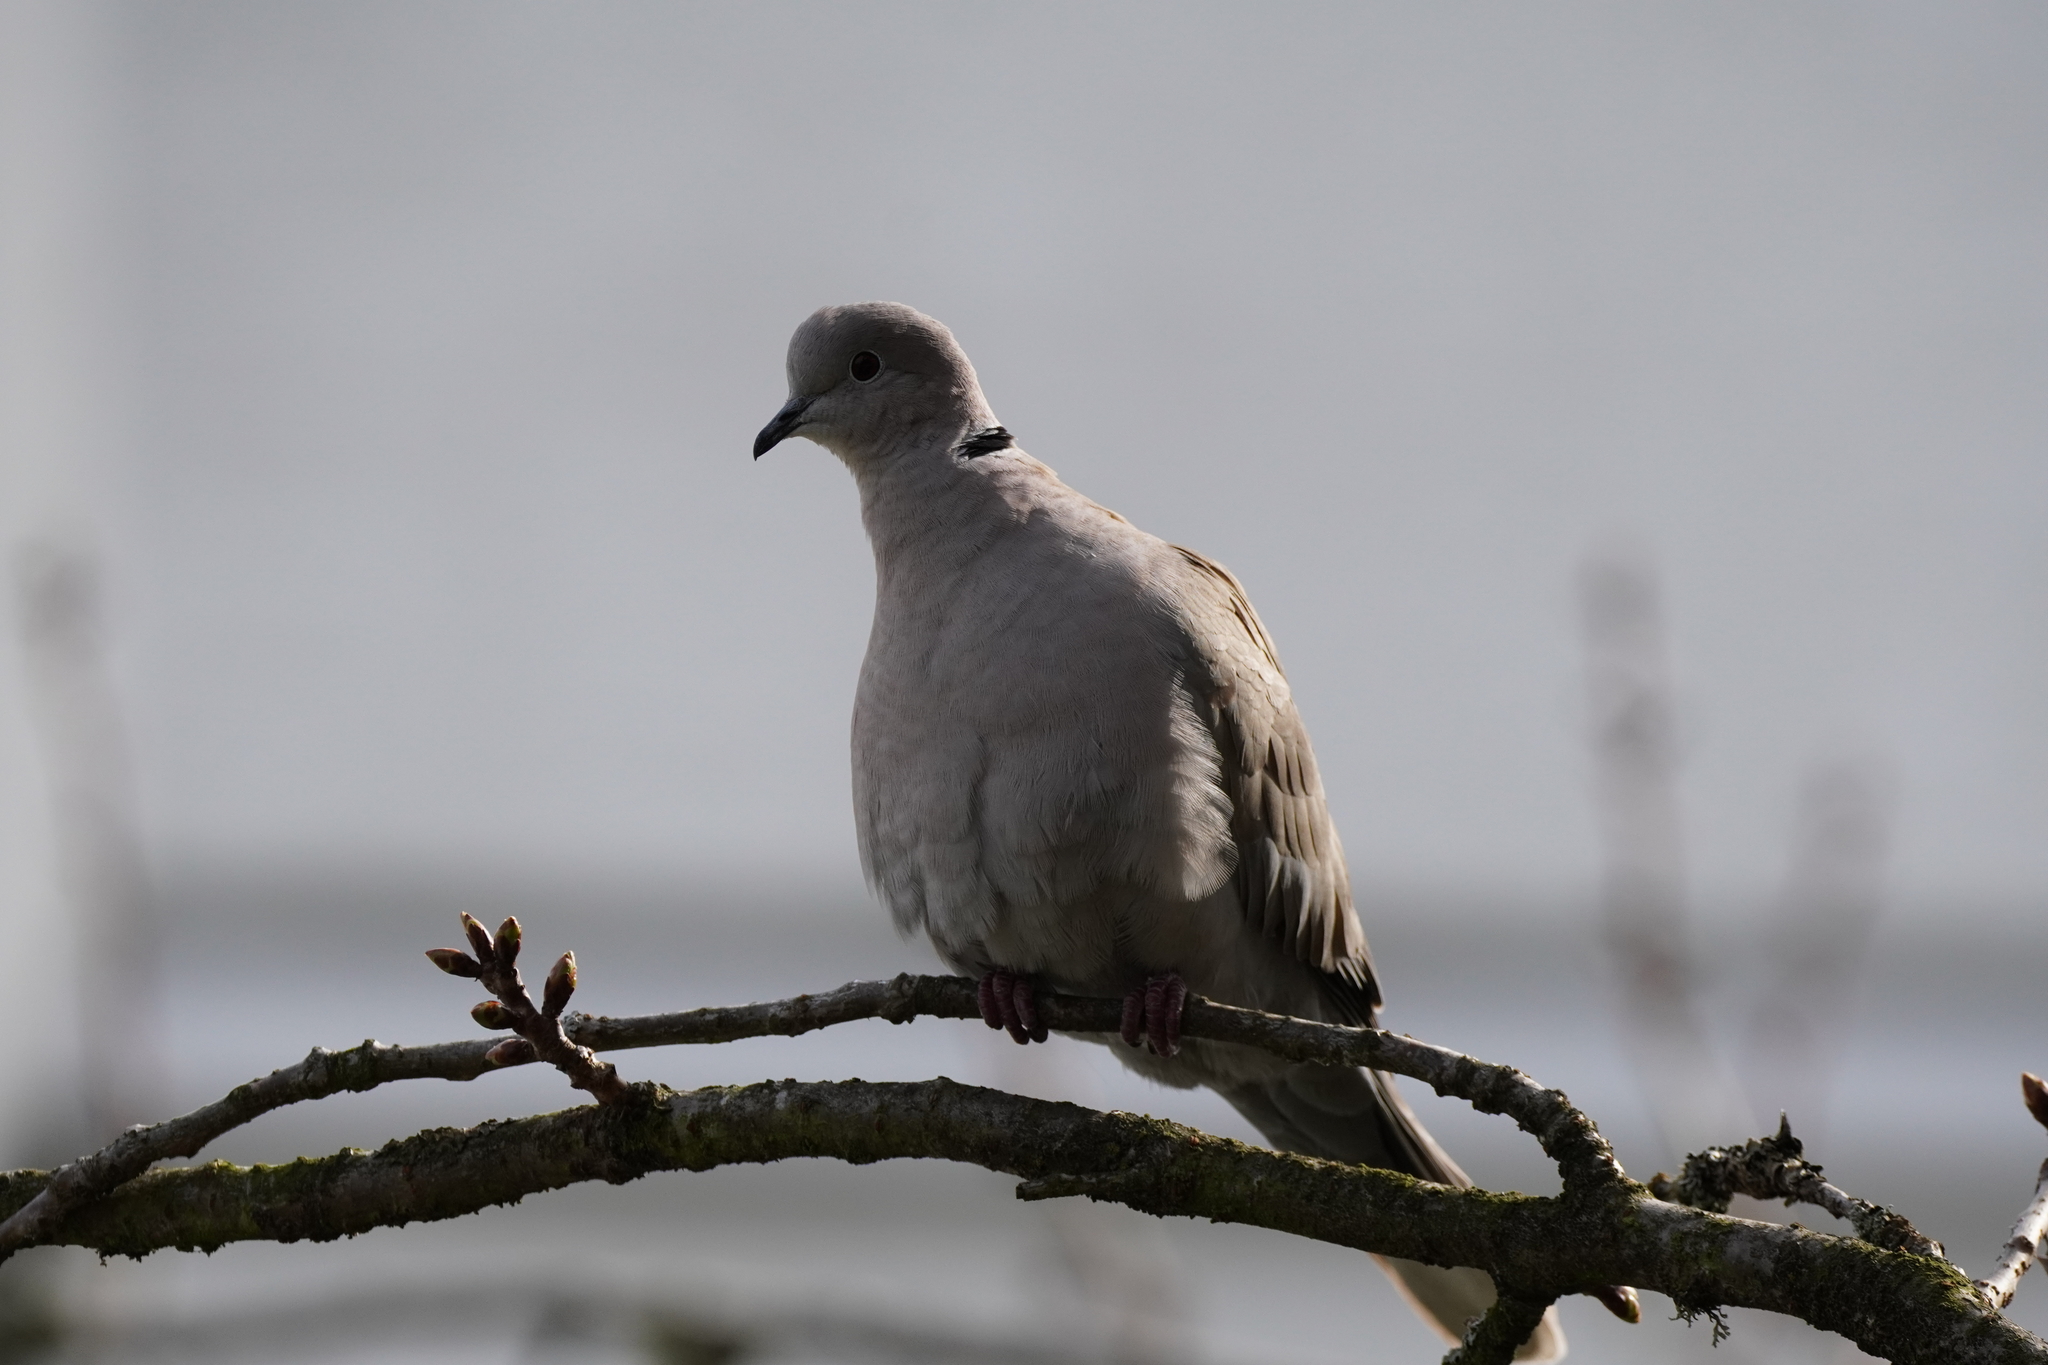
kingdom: Animalia
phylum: Chordata
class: Aves
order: Columbiformes
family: Columbidae
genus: Streptopelia
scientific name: Streptopelia decaocto
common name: Eurasian collared dove
